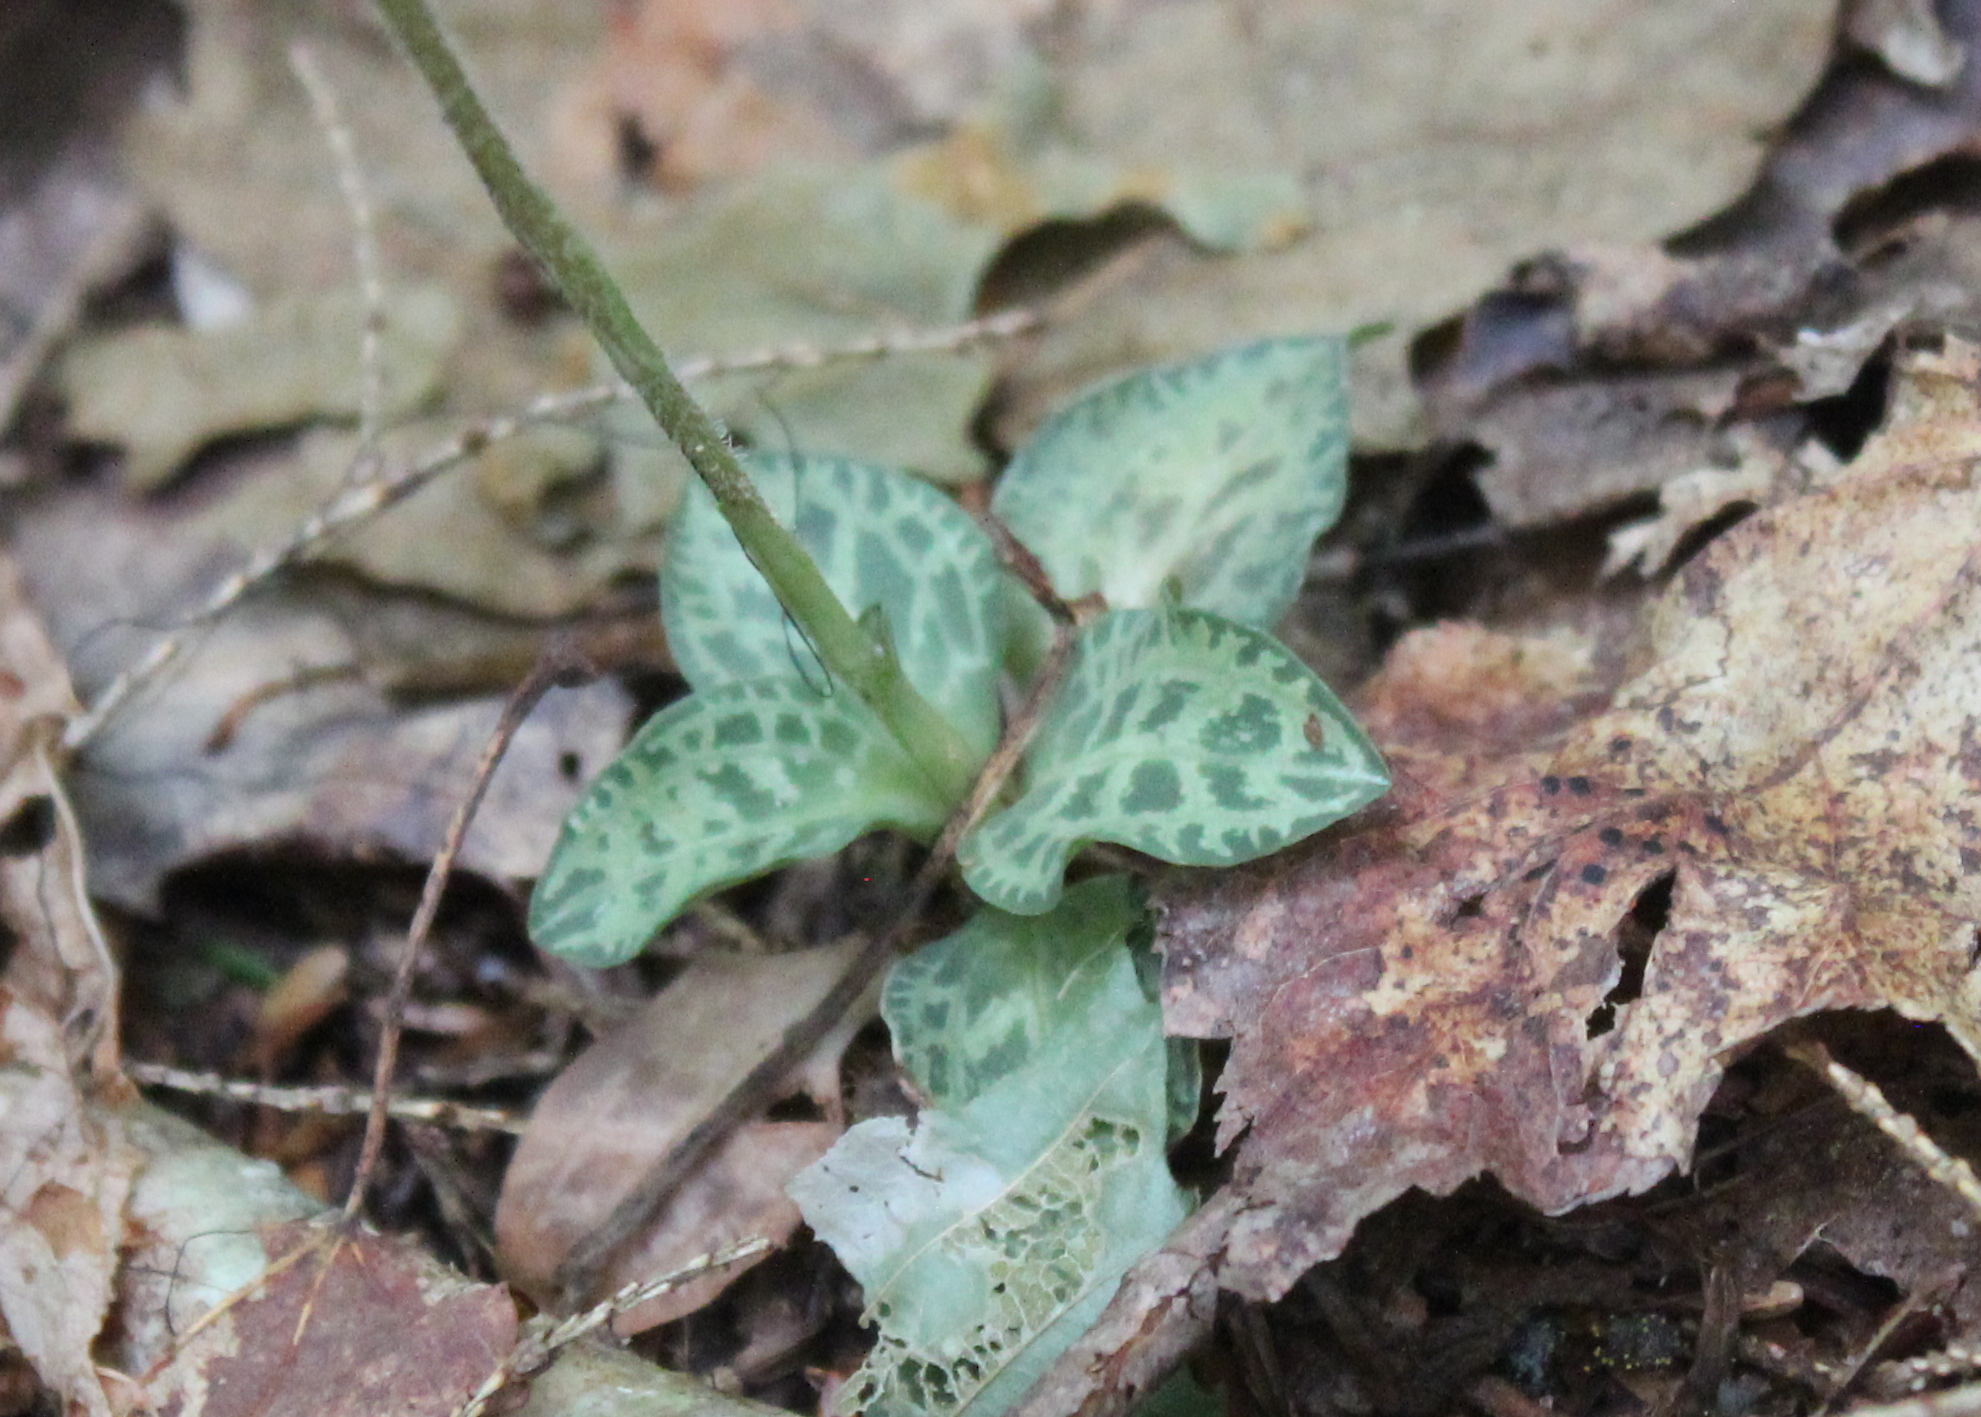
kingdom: Plantae
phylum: Tracheophyta
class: Liliopsida
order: Asparagales
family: Orchidaceae
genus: Goodyera
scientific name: Goodyera tesselata
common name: Checkered rattlesnake-plantain
